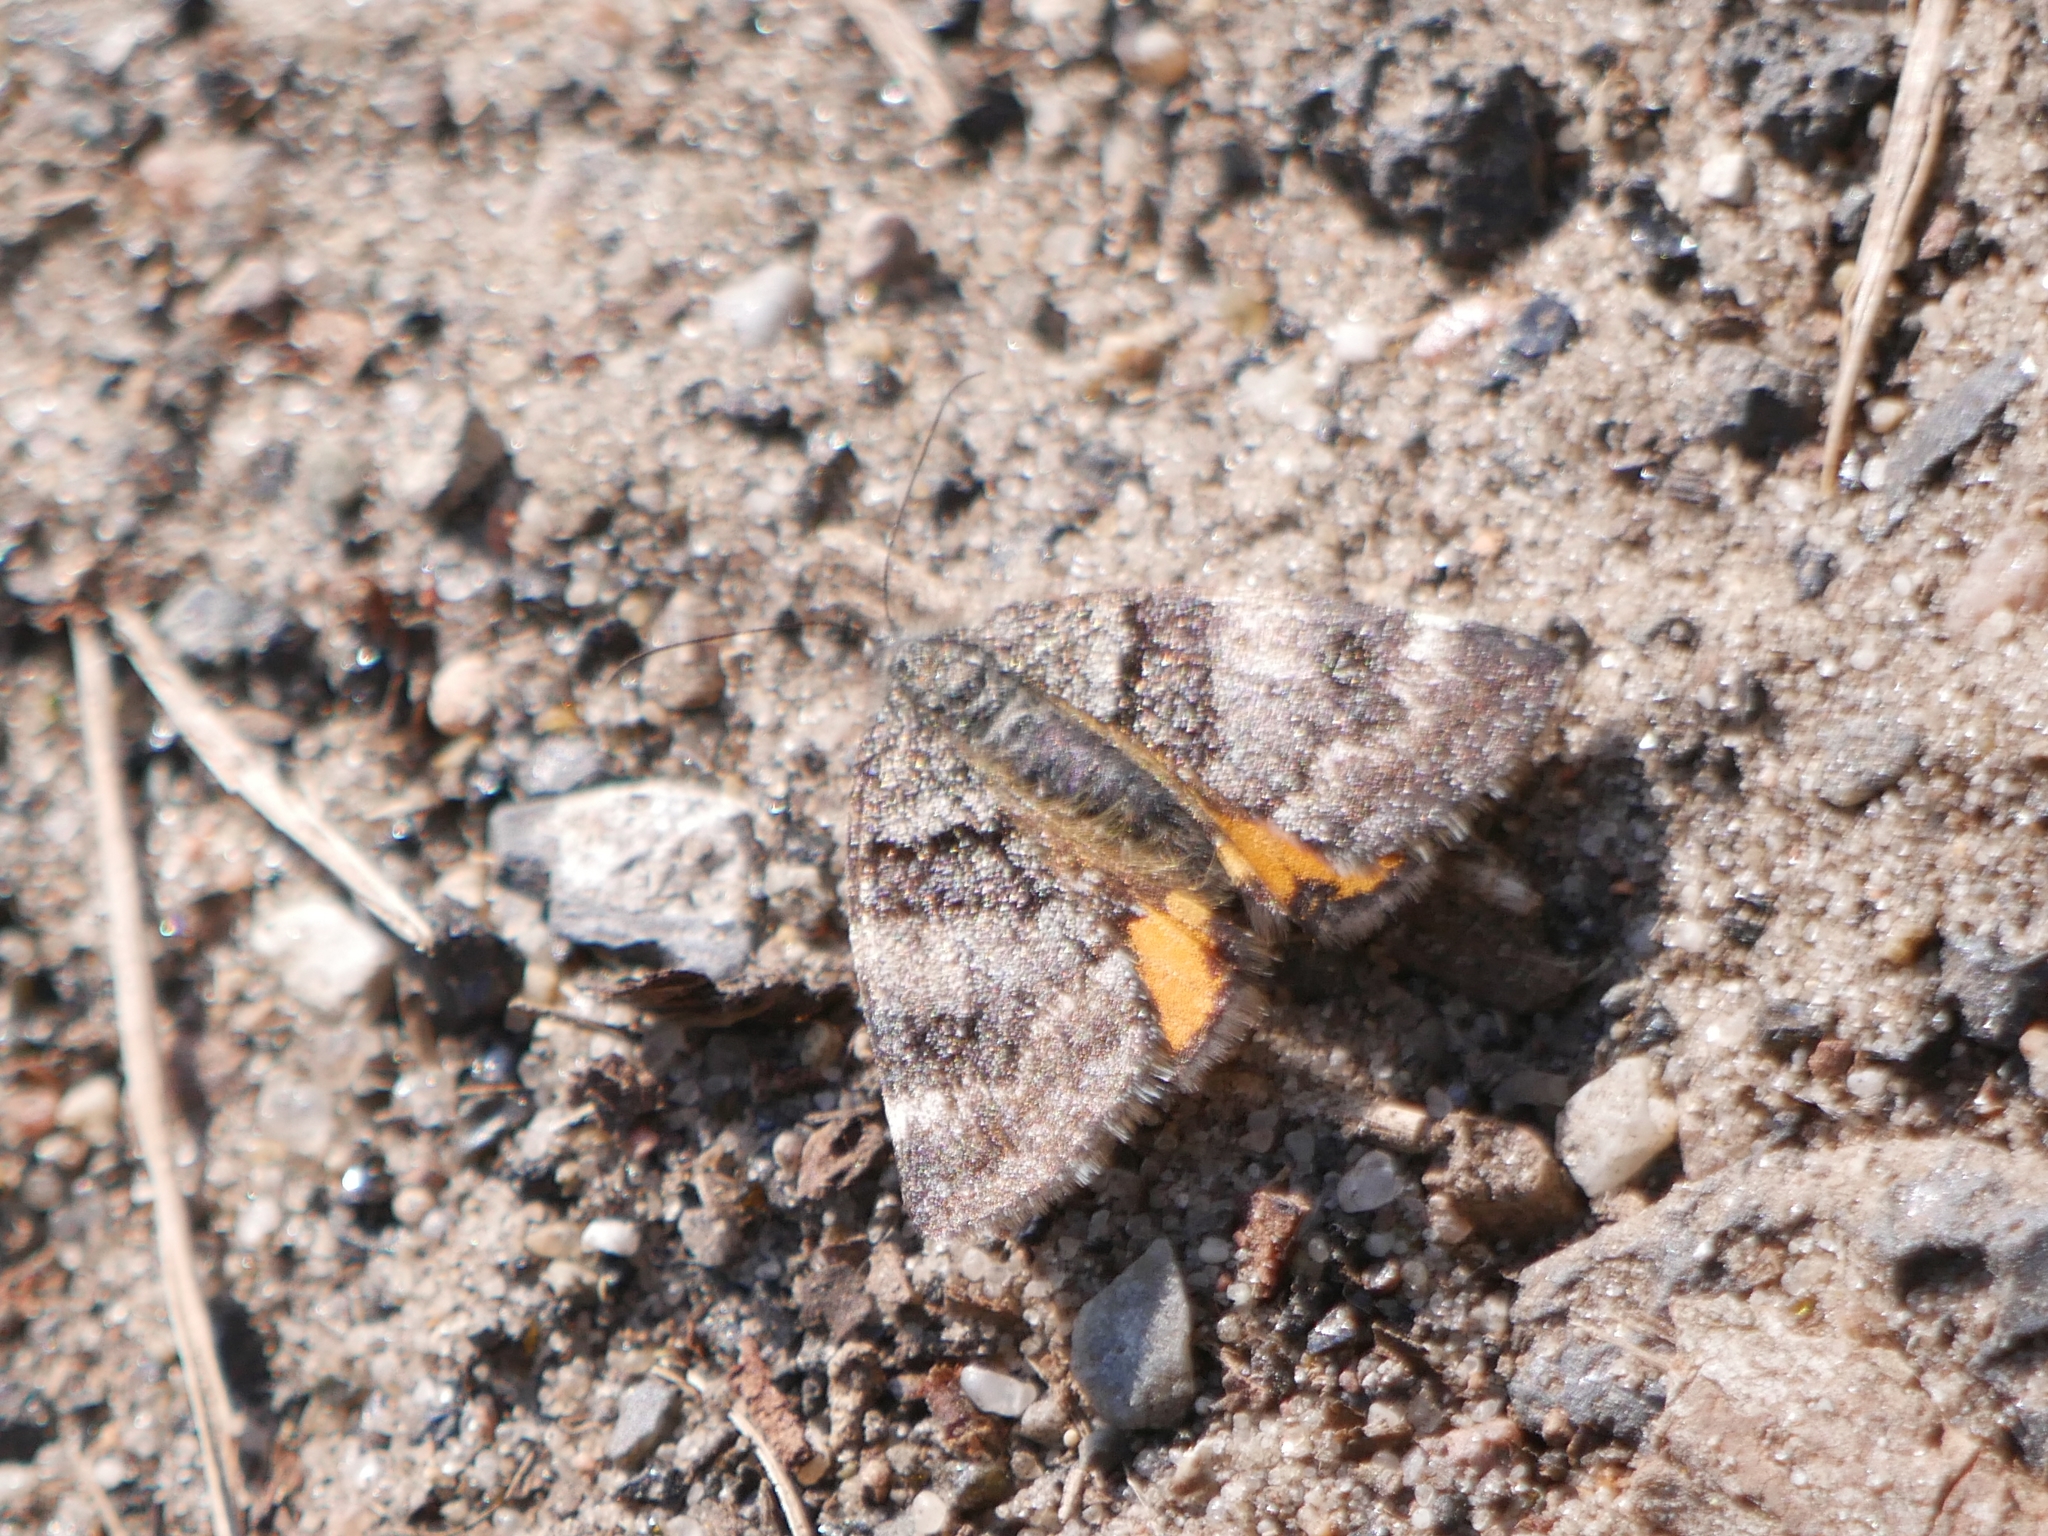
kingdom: Animalia
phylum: Arthropoda
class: Insecta
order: Lepidoptera
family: Geometridae
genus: Archiearis
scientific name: Archiearis notha
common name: Light orange underwing
